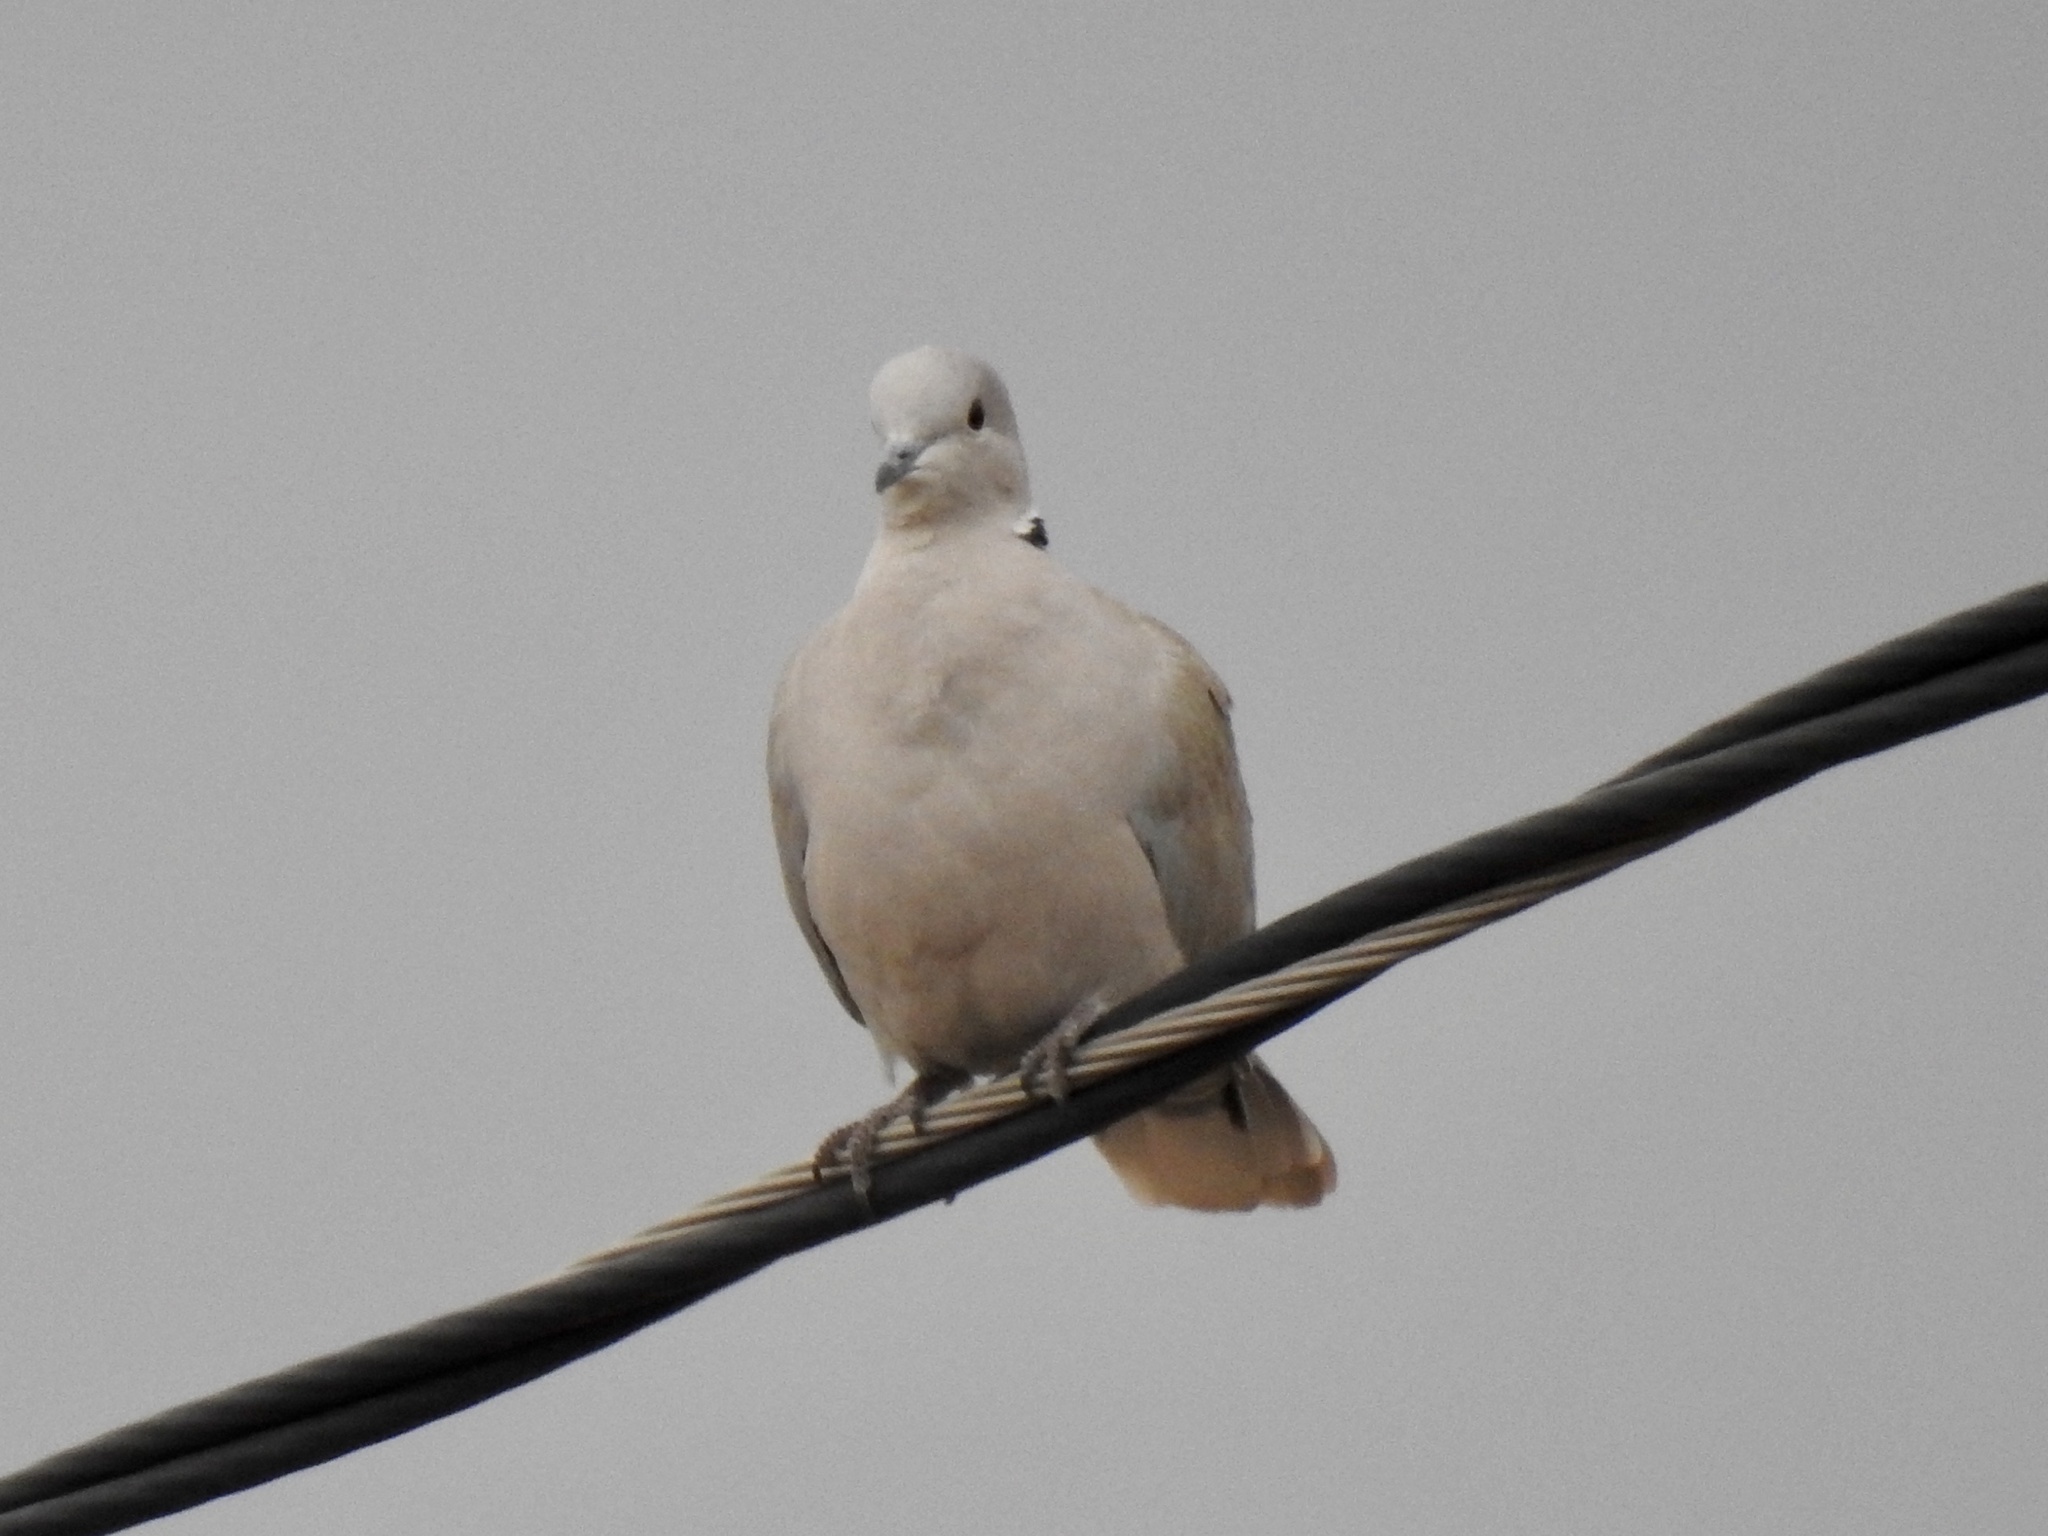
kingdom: Animalia
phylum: Chordata
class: Aves
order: Columbiformes
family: Columbidae
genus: Streptopelia
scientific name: Streptopelia decaocto
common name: Eurasian collared dove
